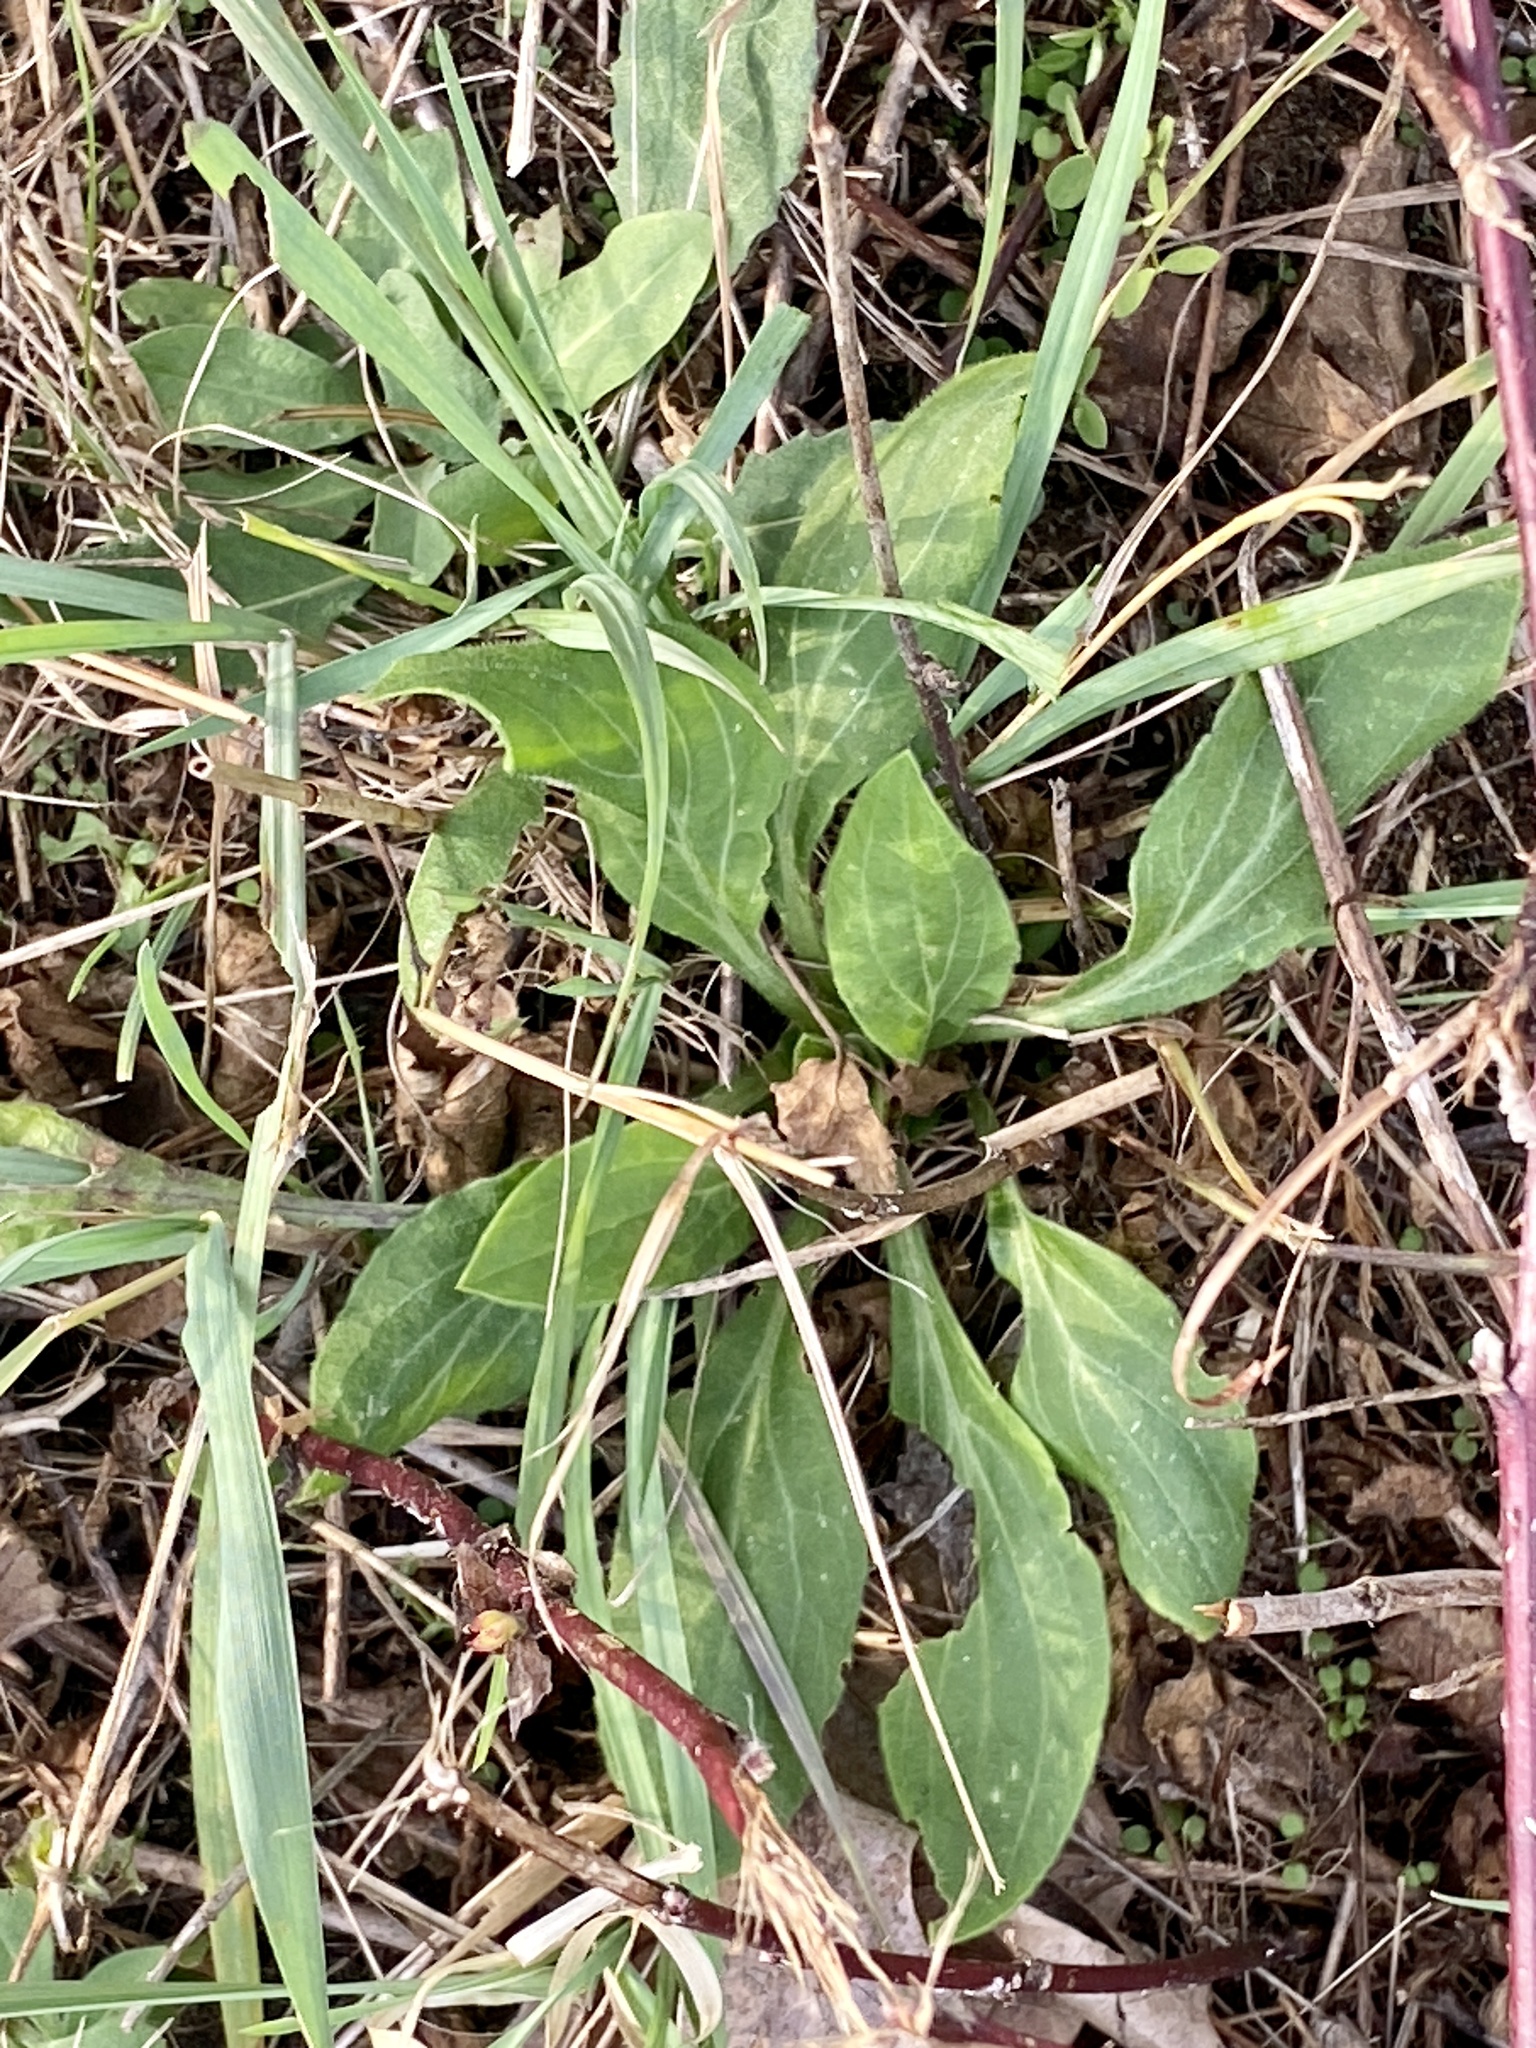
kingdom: Plantae
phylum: Tracheophyta
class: Magnoliopsida
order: Caryophyllales
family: Caryophyllaceae
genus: Silene
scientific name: Silene latifolia
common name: White campion
